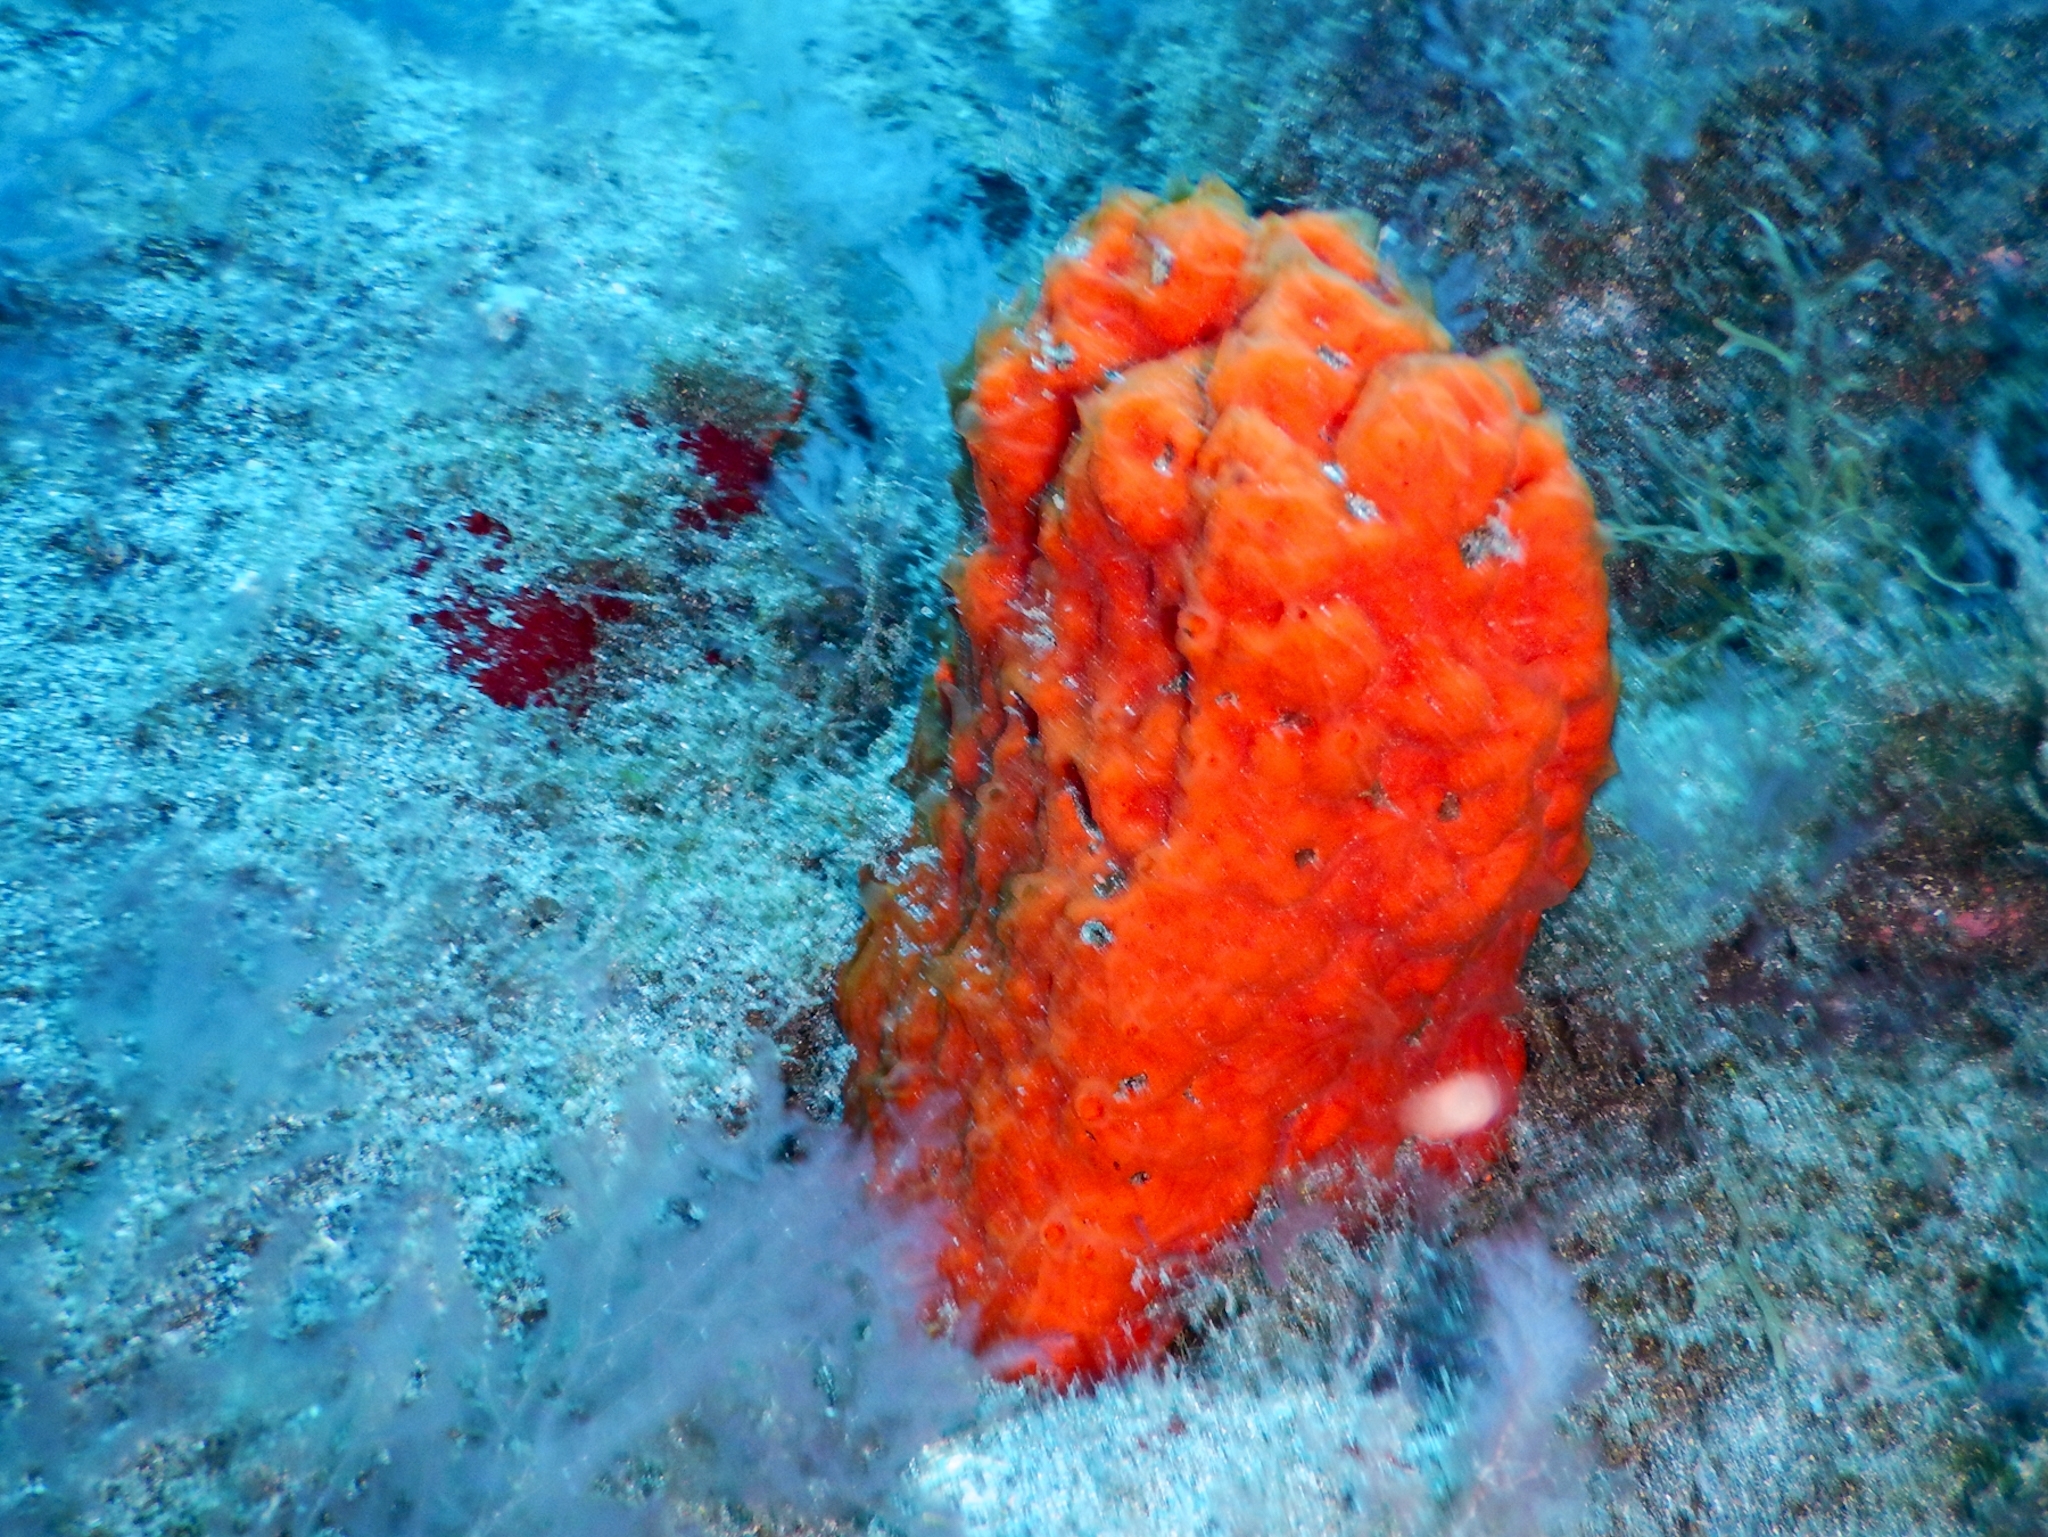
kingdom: Animalia
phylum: Porifera
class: Demospongiae
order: Poecilosclerida
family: Crambeidae
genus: Crambe
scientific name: Crambe crambe
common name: Orange-red encrusting sponge
